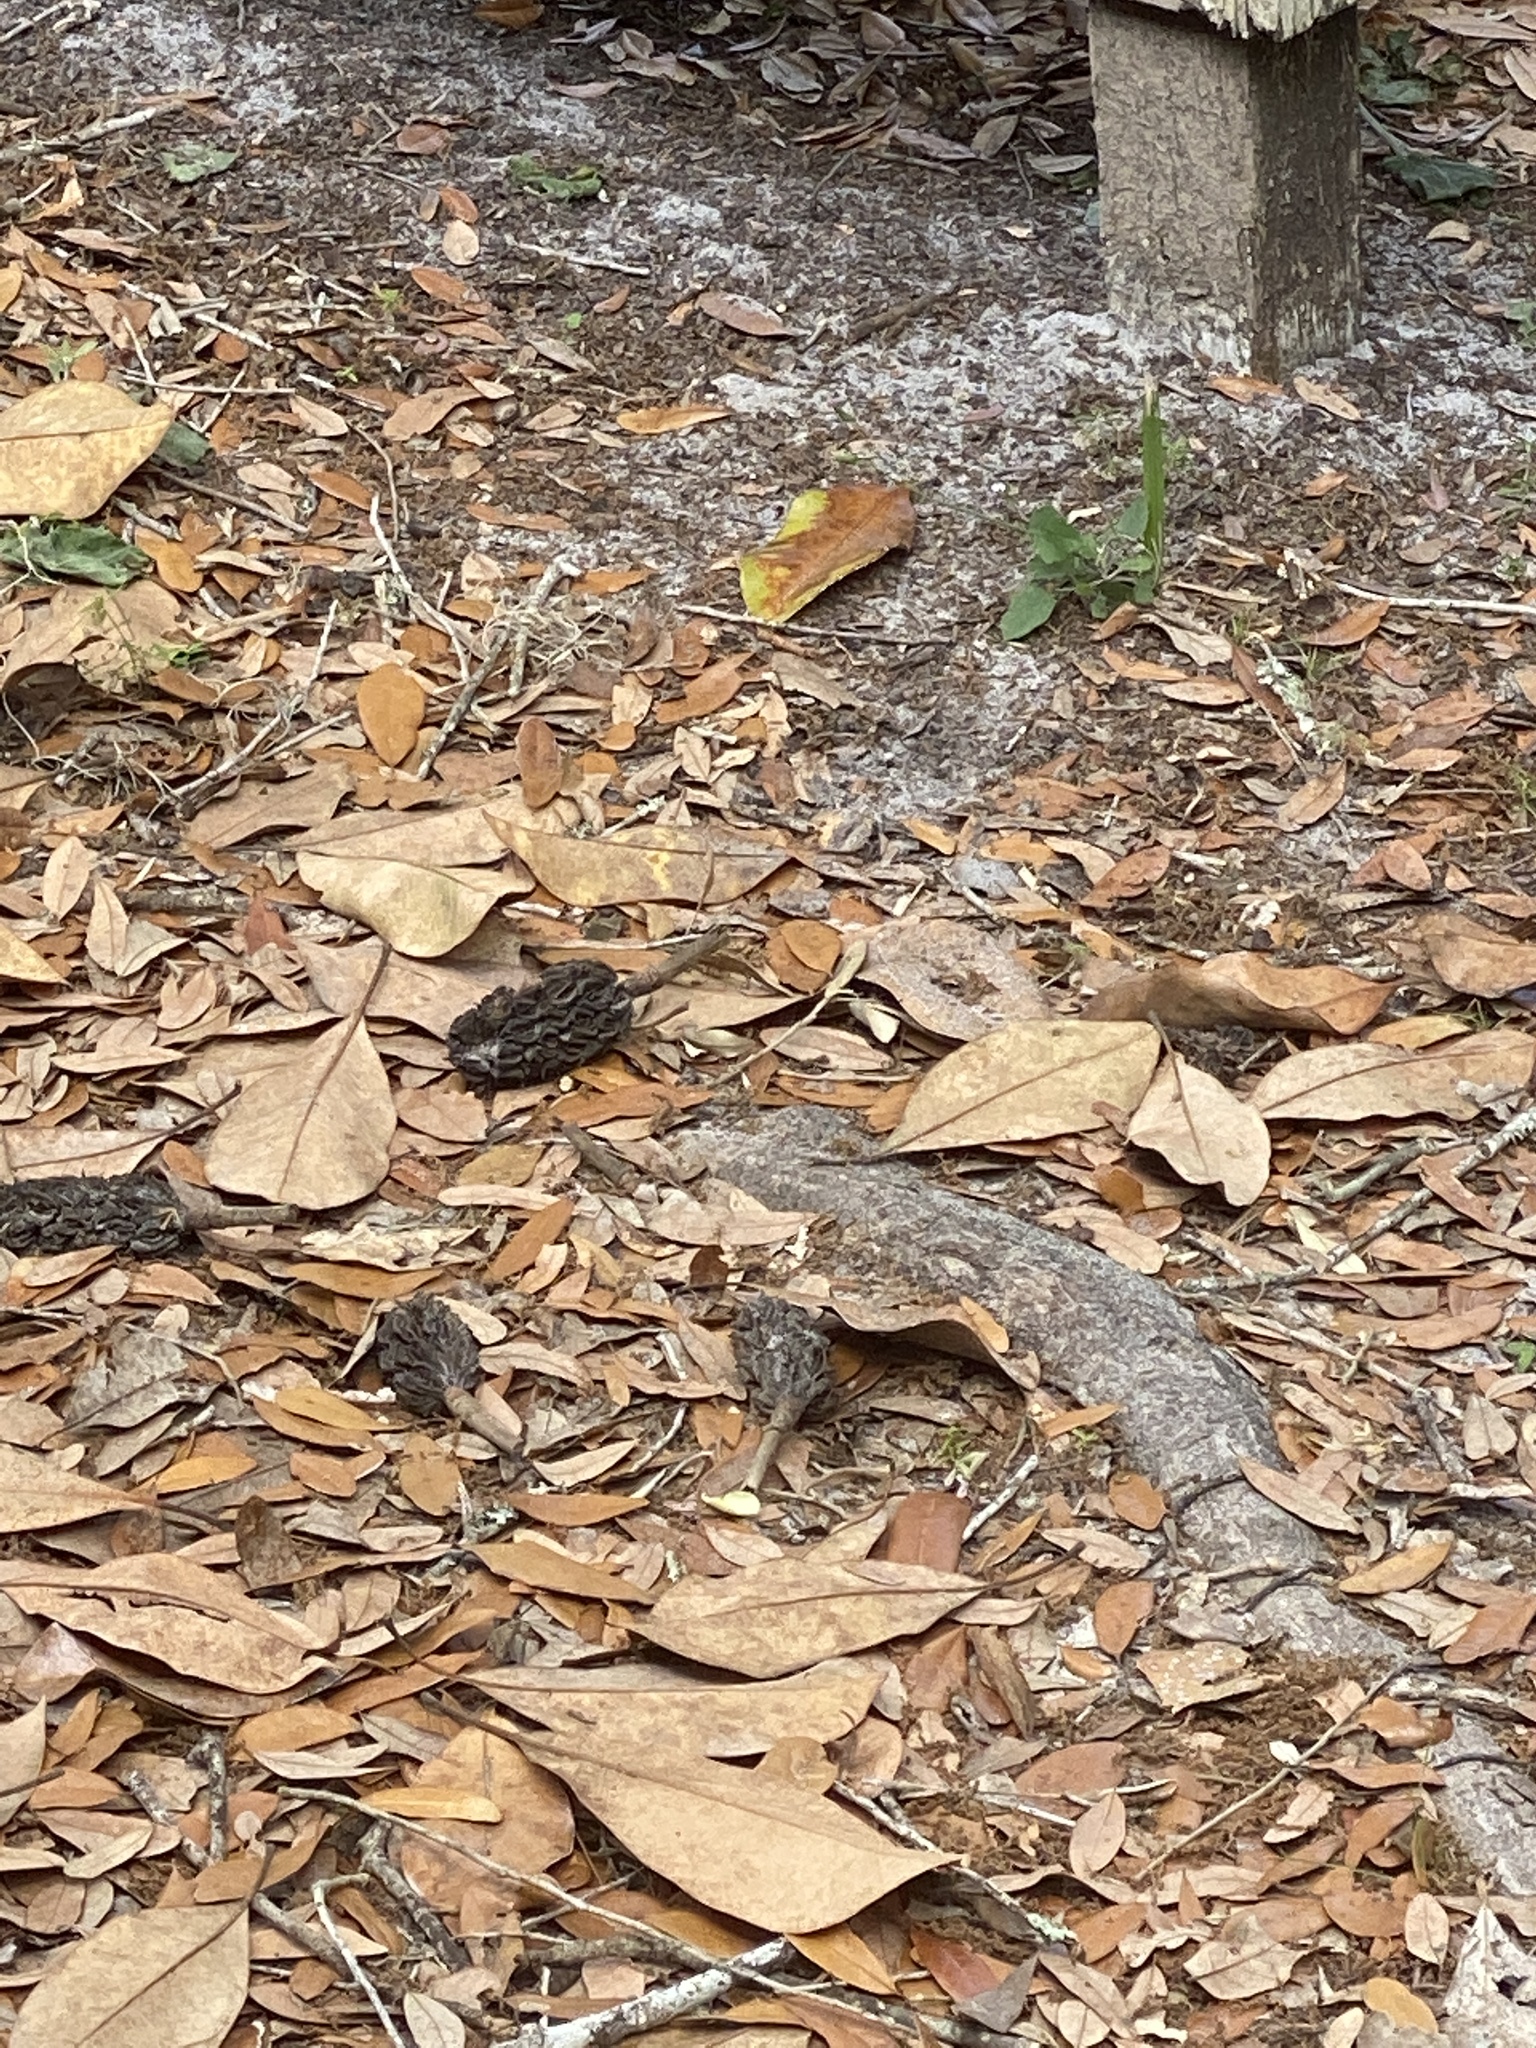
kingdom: Plantae
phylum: Tracheophyta
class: Magnoliopsida
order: Magnoliales
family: Magnoliaceae
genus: Magnolia
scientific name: Magnolia grandiflora
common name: Southern magnolia
